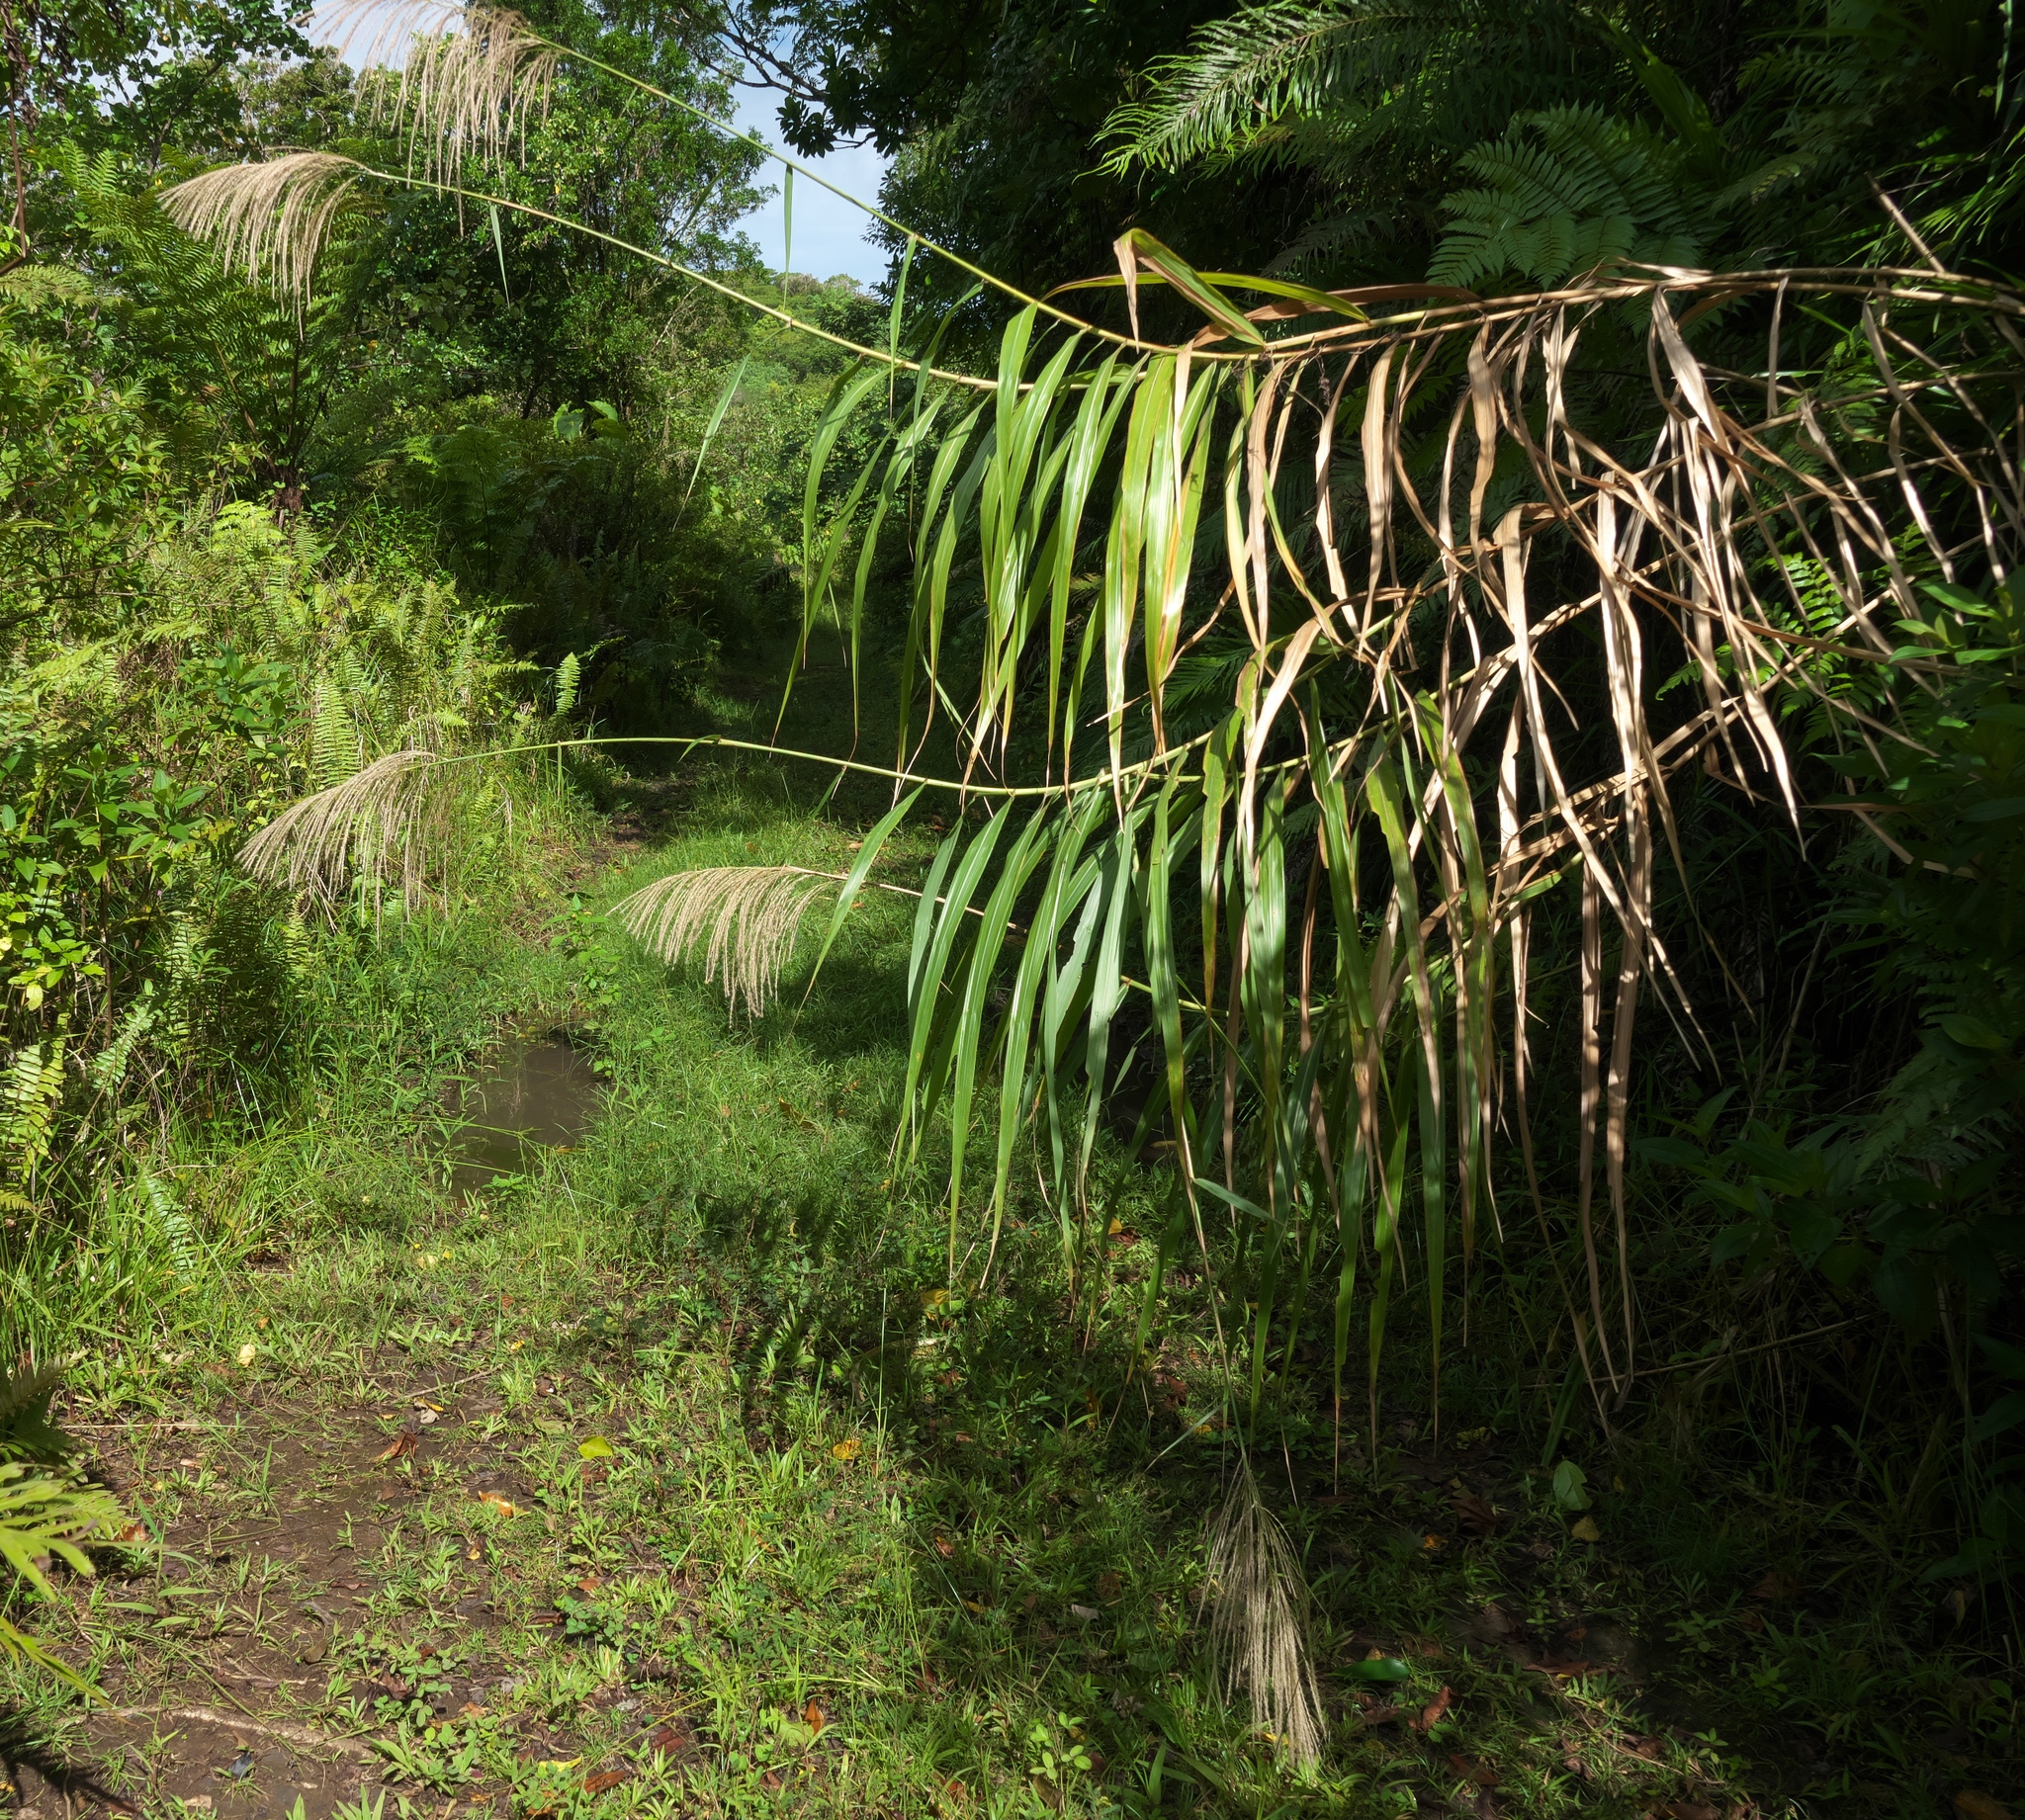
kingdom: Plantae
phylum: Tracheophyta
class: Liliopsida
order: Poales
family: Poaceae
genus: Miscanthus
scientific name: Miscanthus floridulus
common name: Pacific island silvergrass
